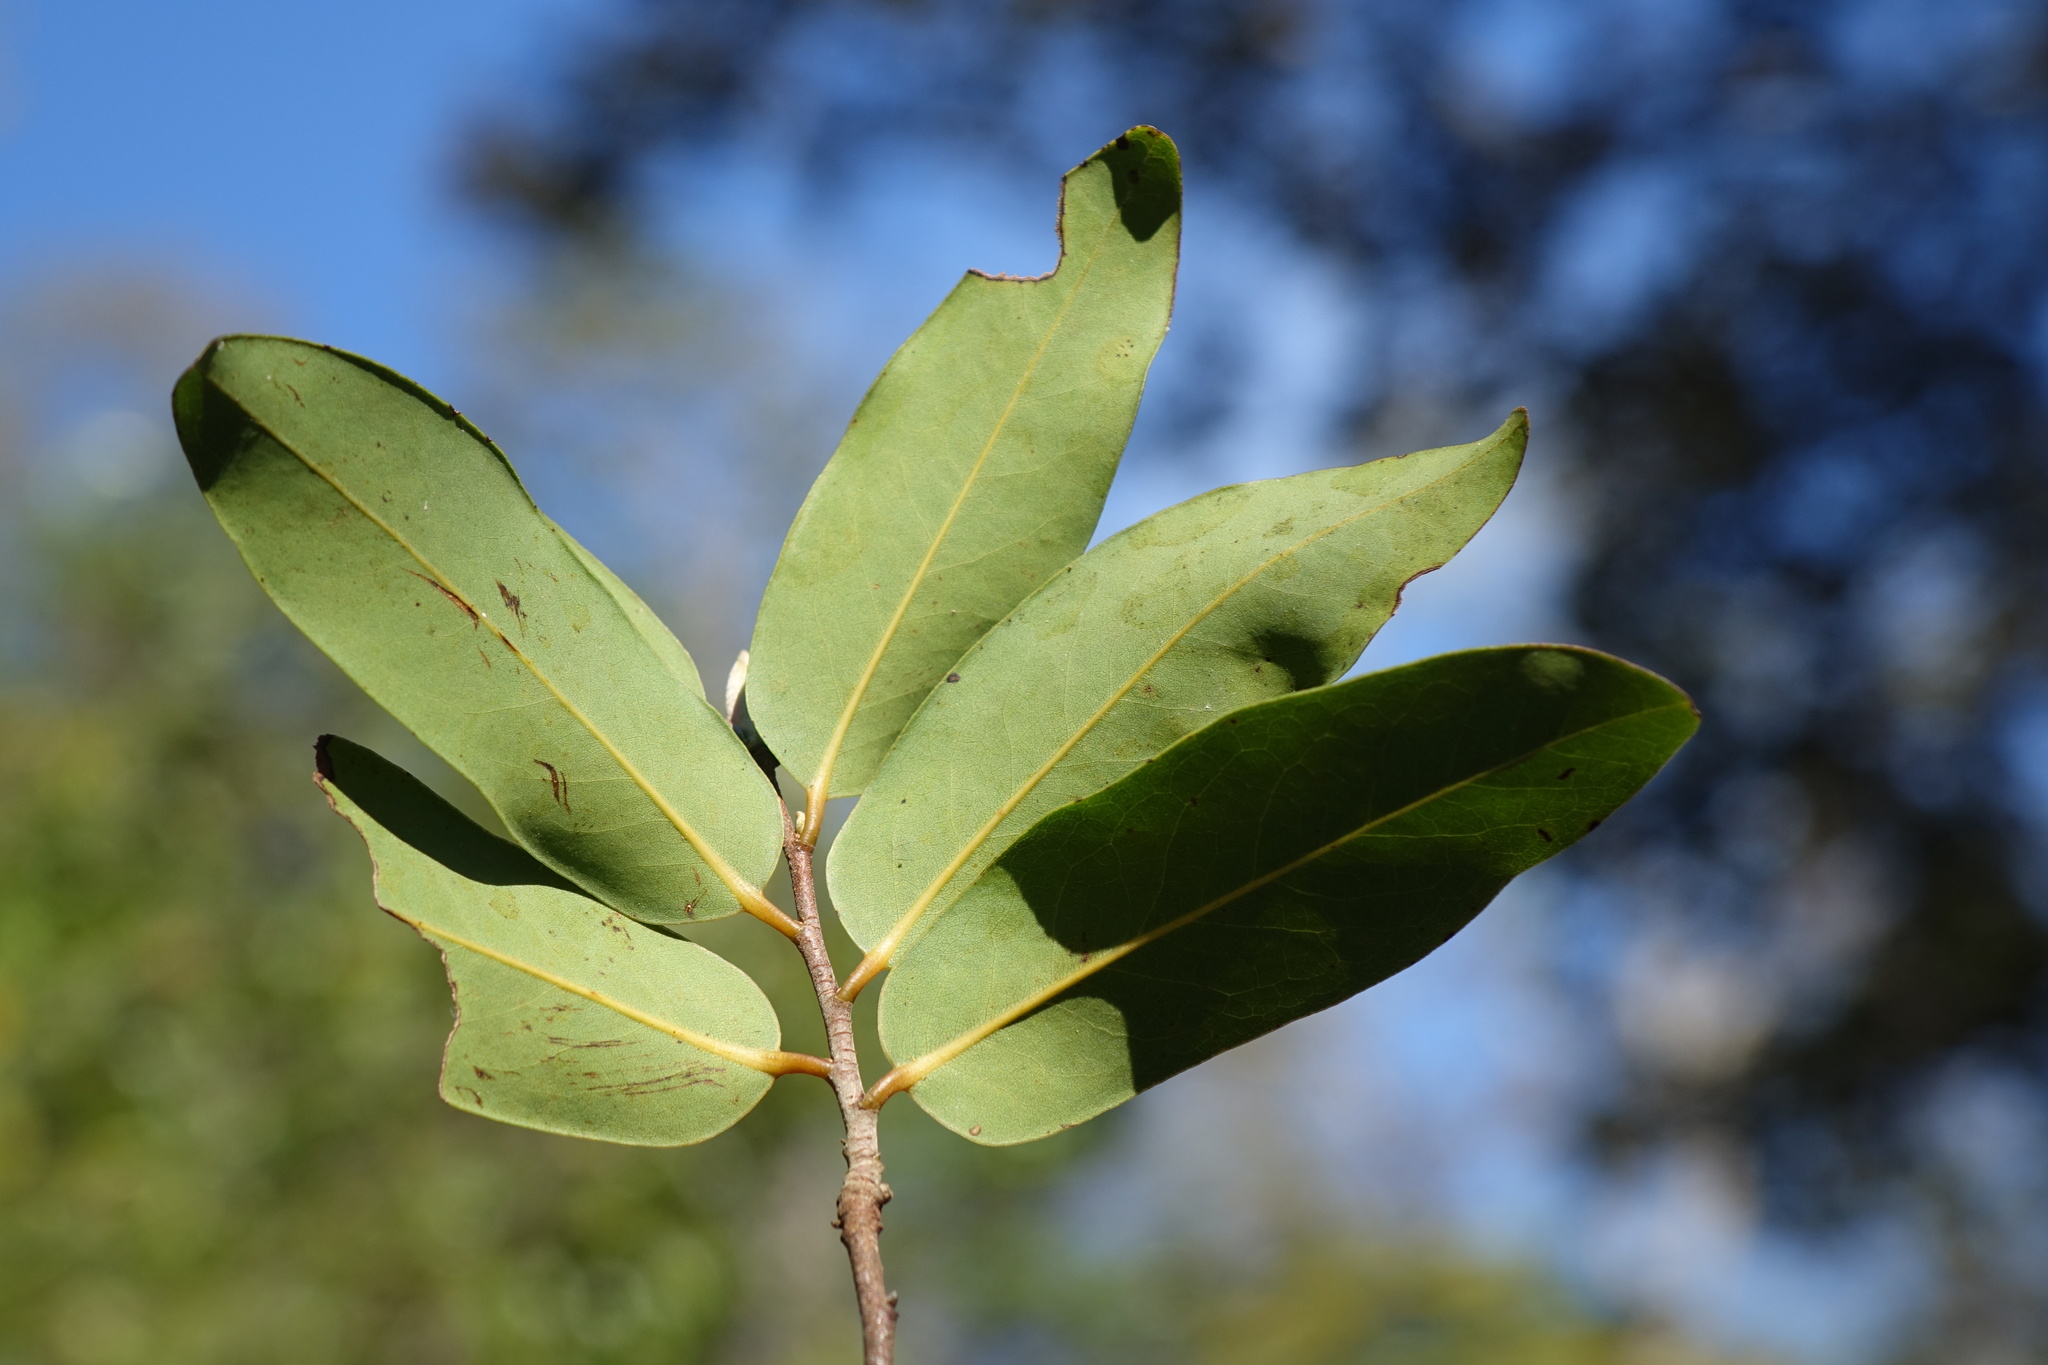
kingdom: Plantae
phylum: Tracheophyta
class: Magnoliopsida
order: Magnoliales
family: Annonaceae
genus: Xylopia
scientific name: Xylopia sericolampra
